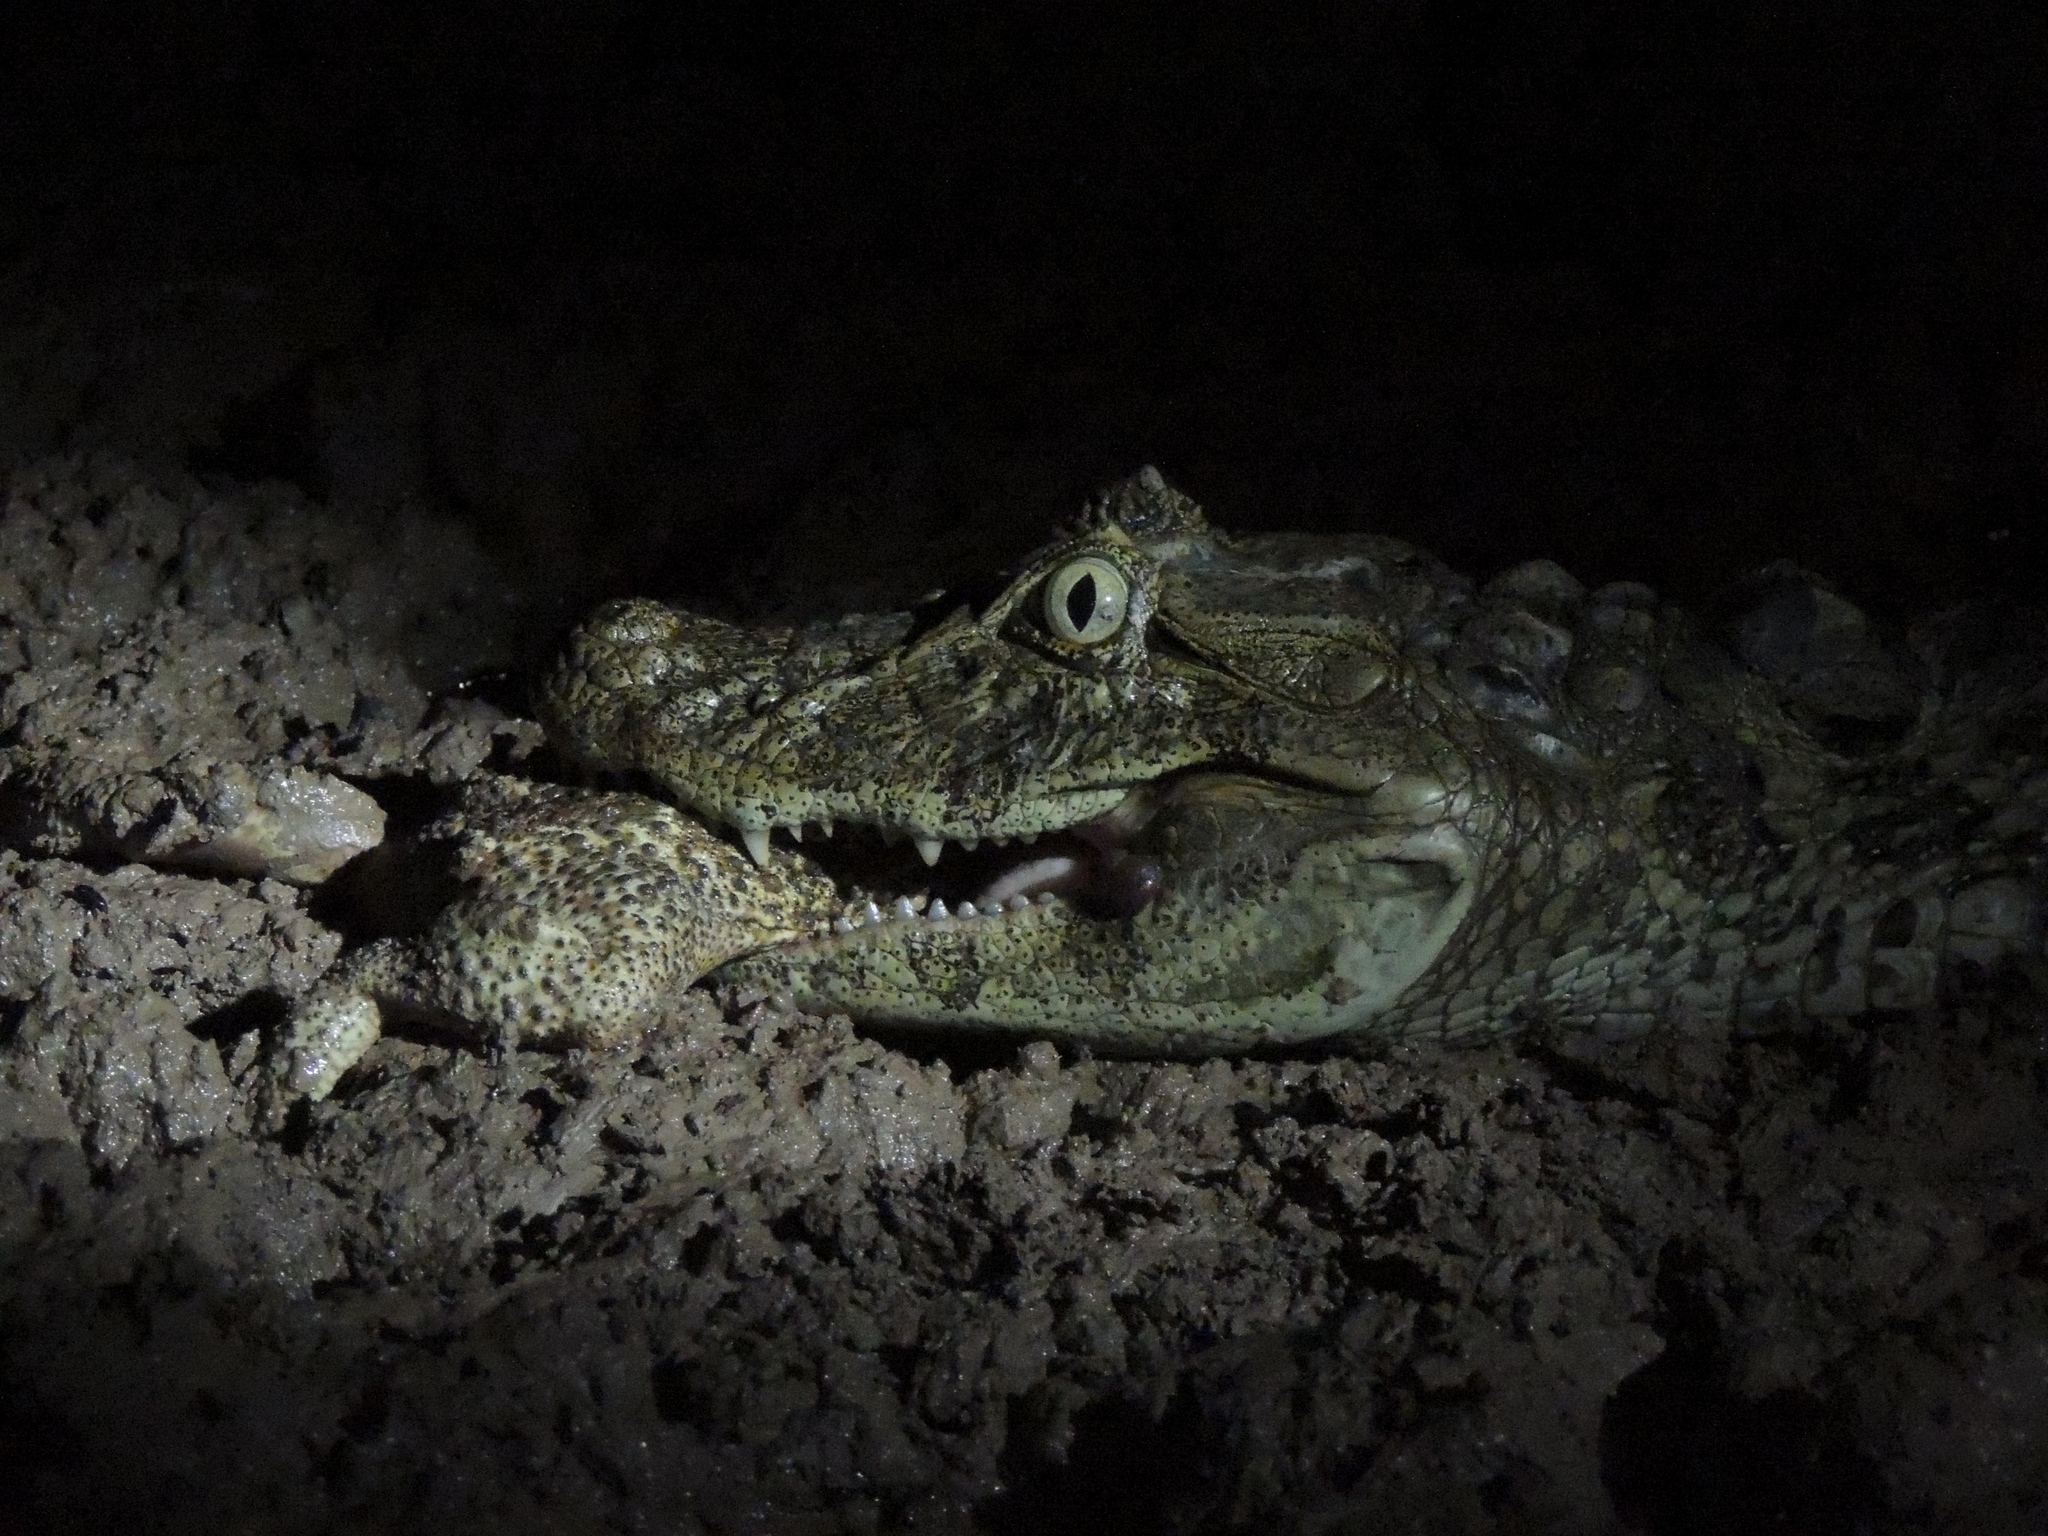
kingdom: Animalia
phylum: Chordata
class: Crocodylia
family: Alligatoridae
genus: Caiman
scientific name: Caiman latirostris
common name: Broad-snouted caiman
